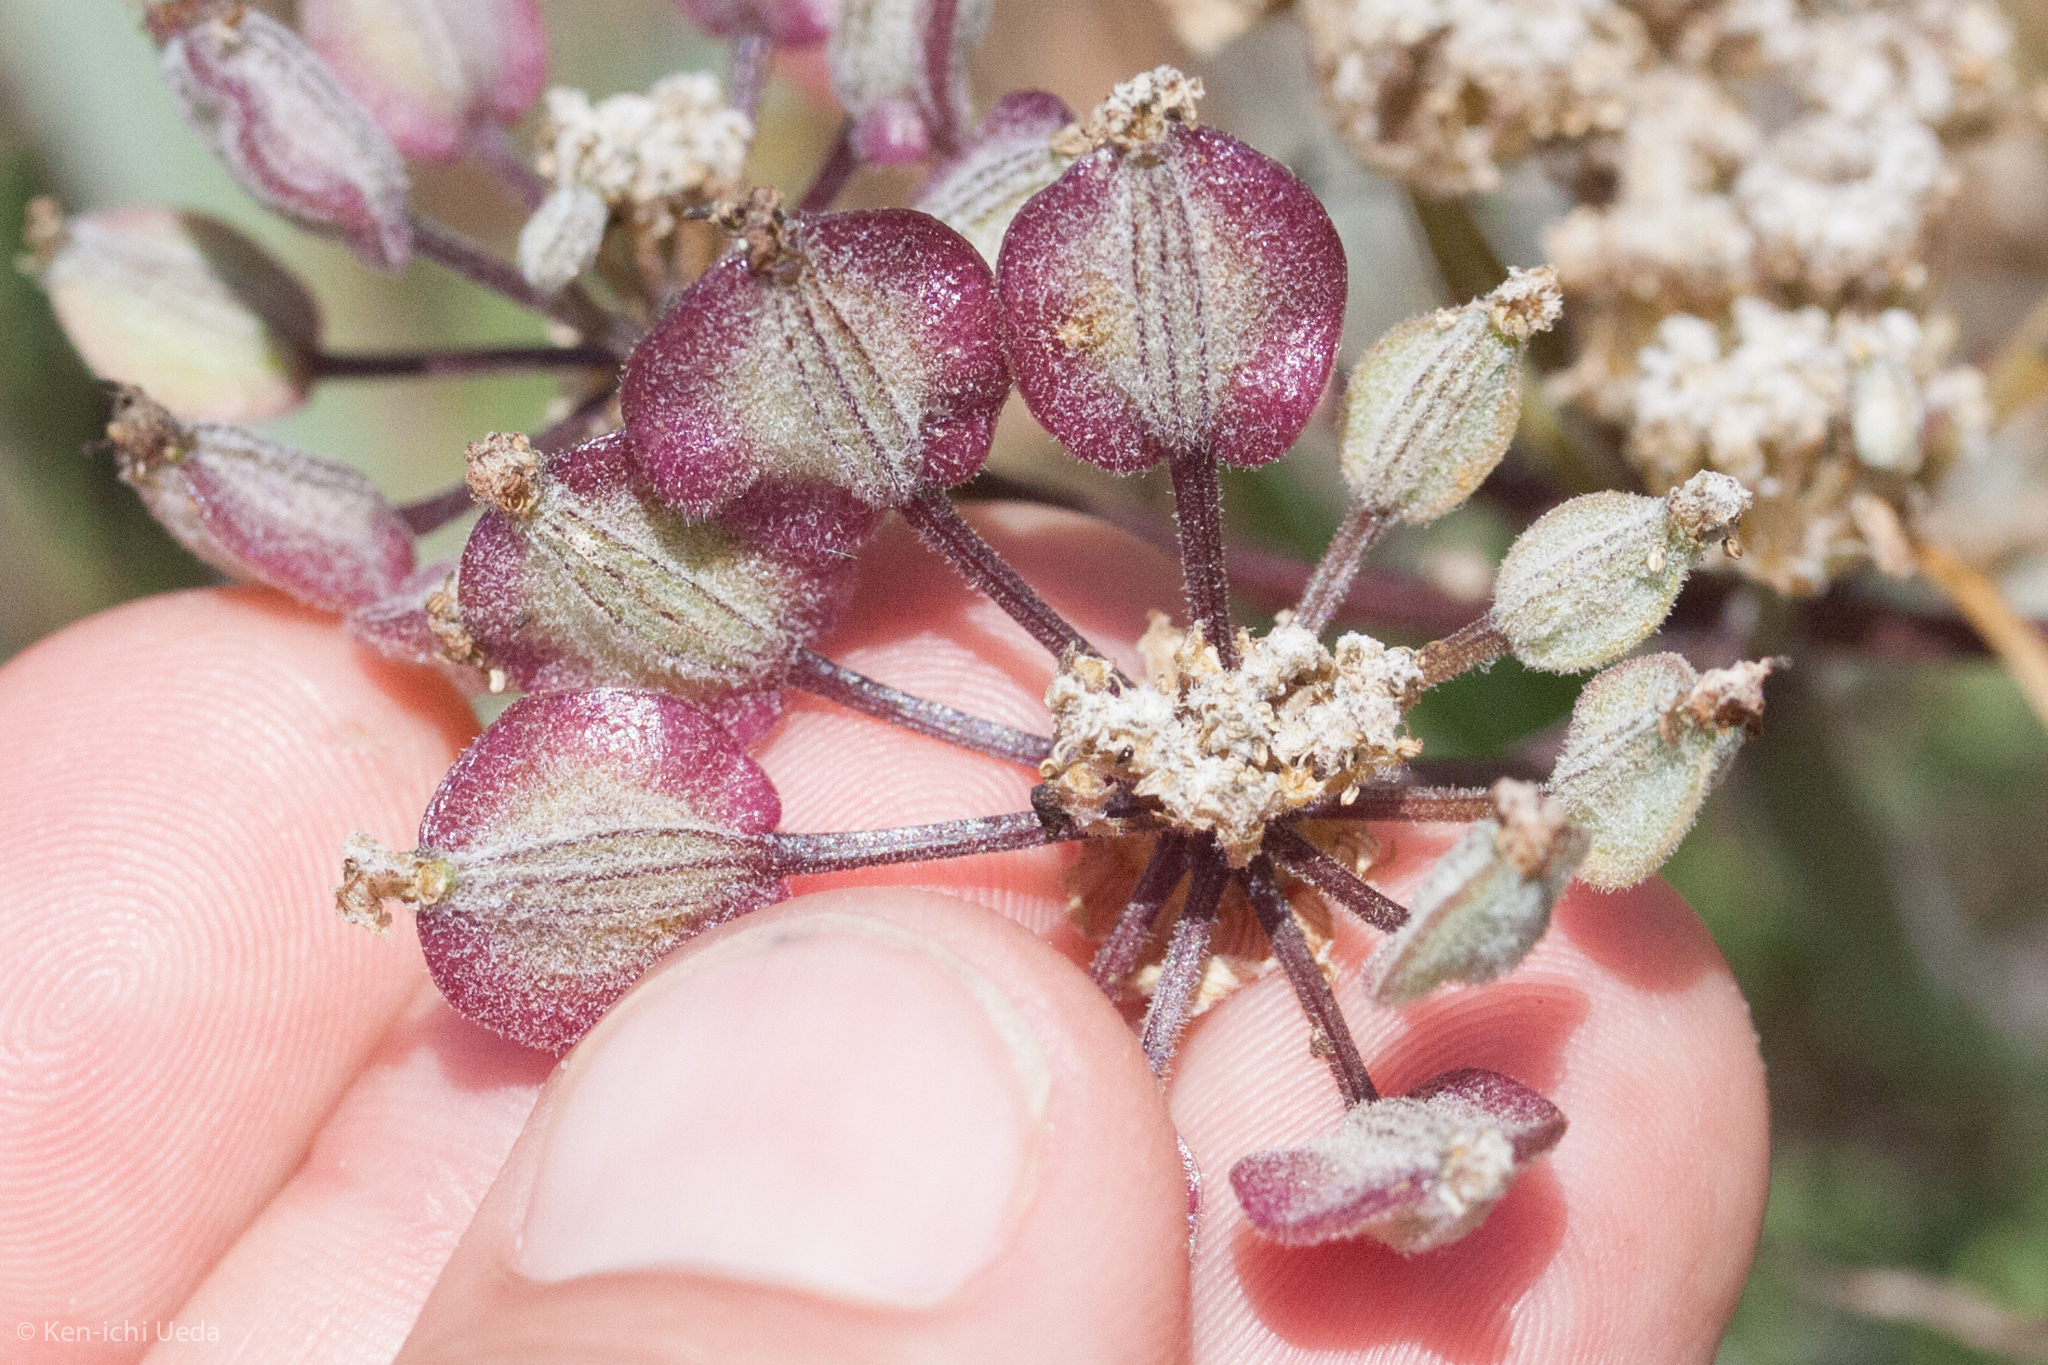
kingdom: Plantae
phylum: Tracheophyta
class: Magnoliopsida
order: Apiales
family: Apiaceae
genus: Lomatium
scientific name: Lomatium dasycarpum
